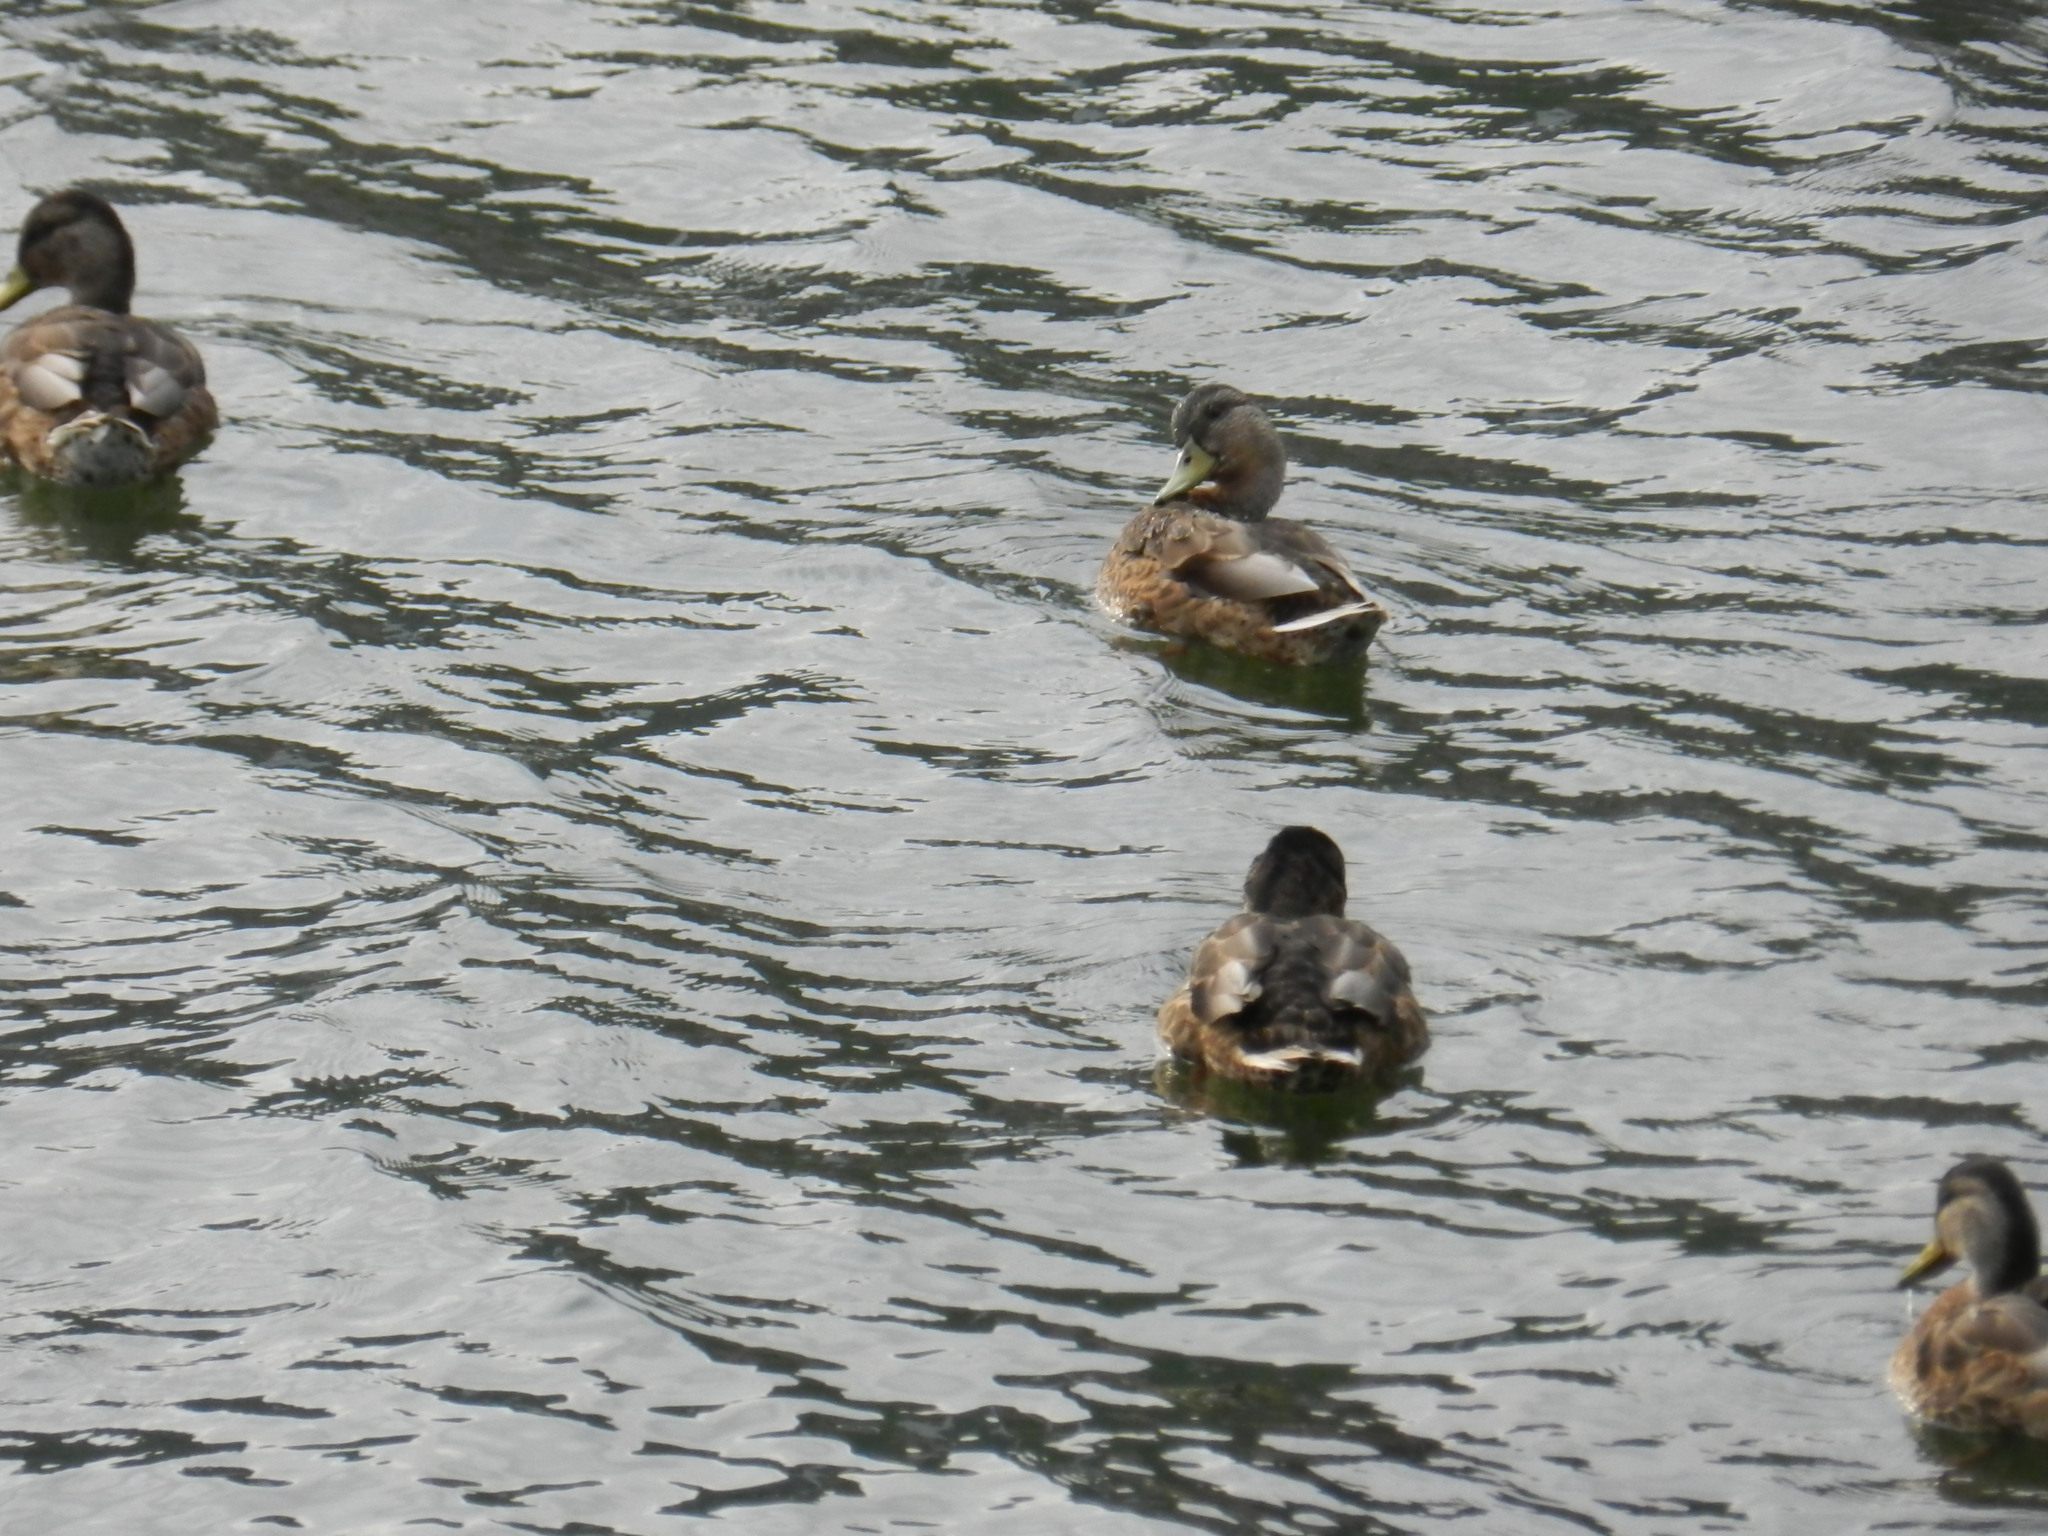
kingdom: Animalia
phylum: Chordata
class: Aves
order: Anseriformes
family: Anatidae
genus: Anas
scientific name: Anas platyrhynchos
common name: Mallard
